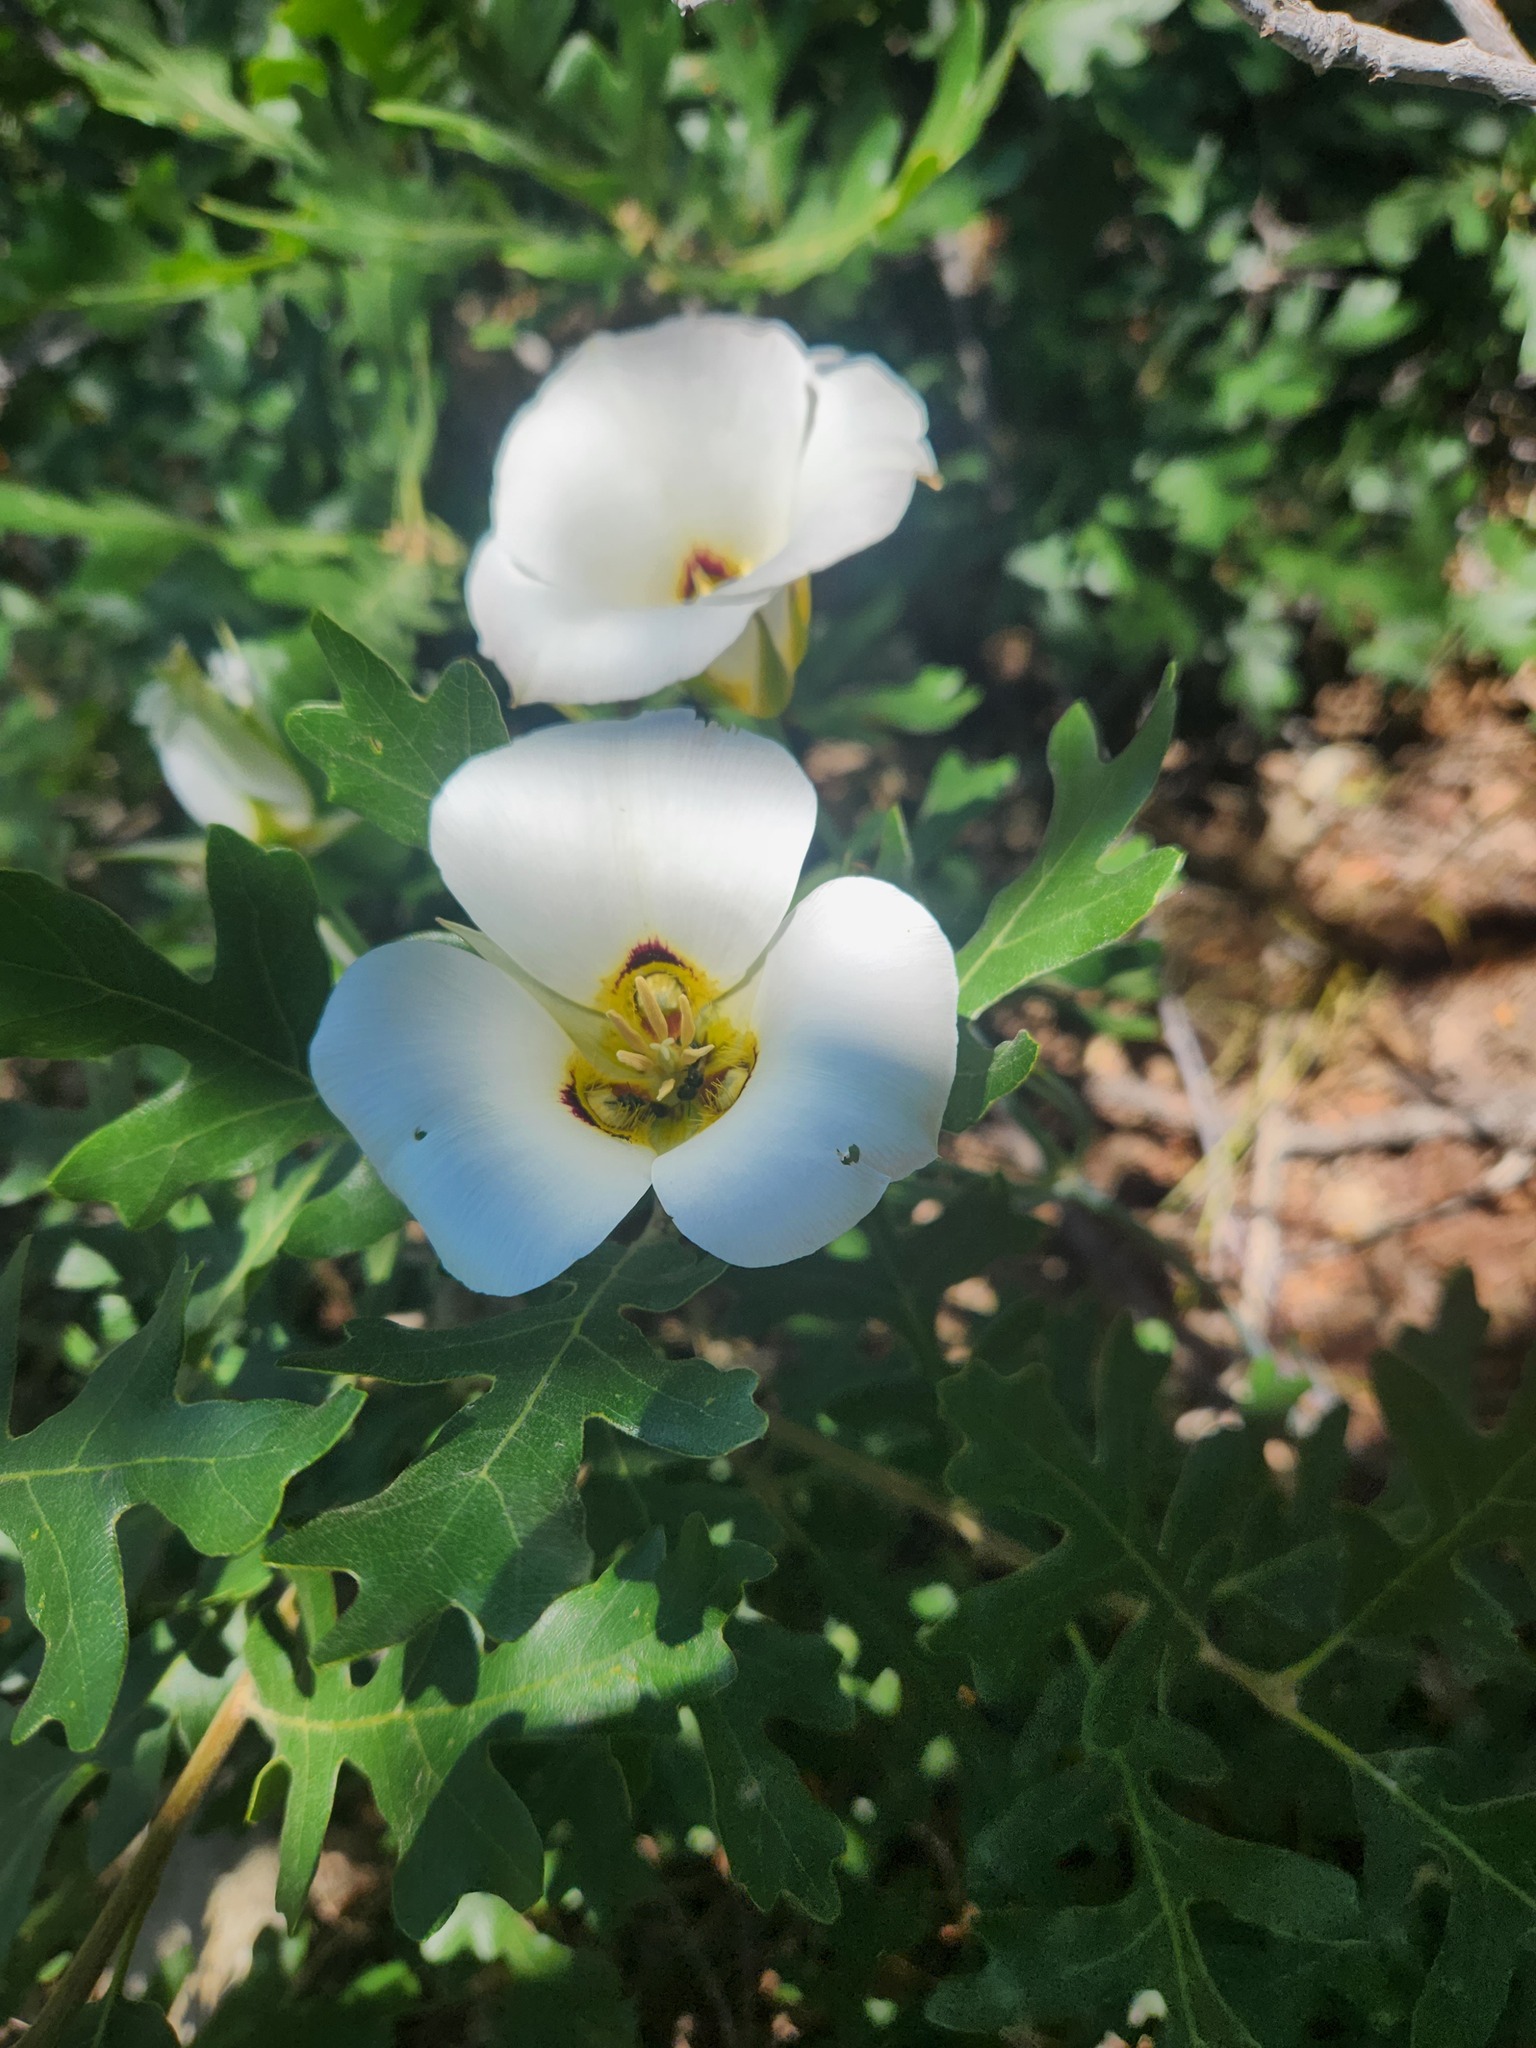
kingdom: Plantae
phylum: Tracheophyta
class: Liliopsida
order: Liliales
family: Liliaceae
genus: Calochortus
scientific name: Calochortus nuttallii
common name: Sego-lily
